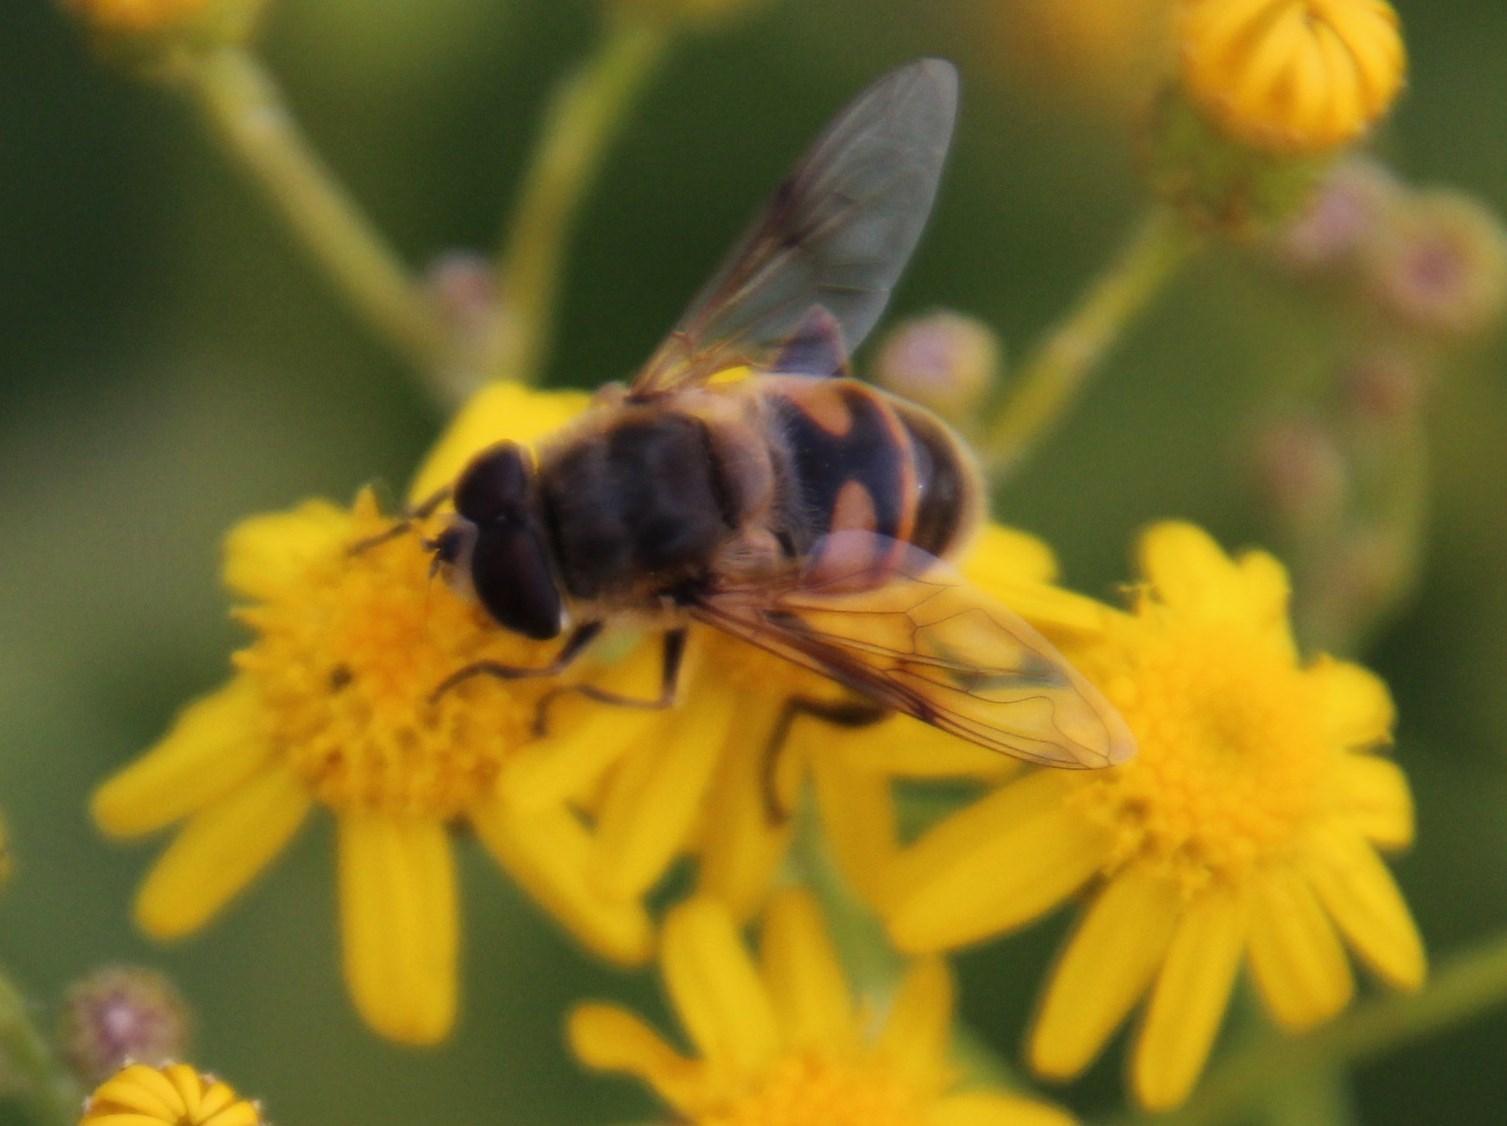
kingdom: Animalia
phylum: Arthropoda
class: Insecta
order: Diptera
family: Syrphidae
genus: Eristalis
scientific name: Eristalis tenax
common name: Drone fly
